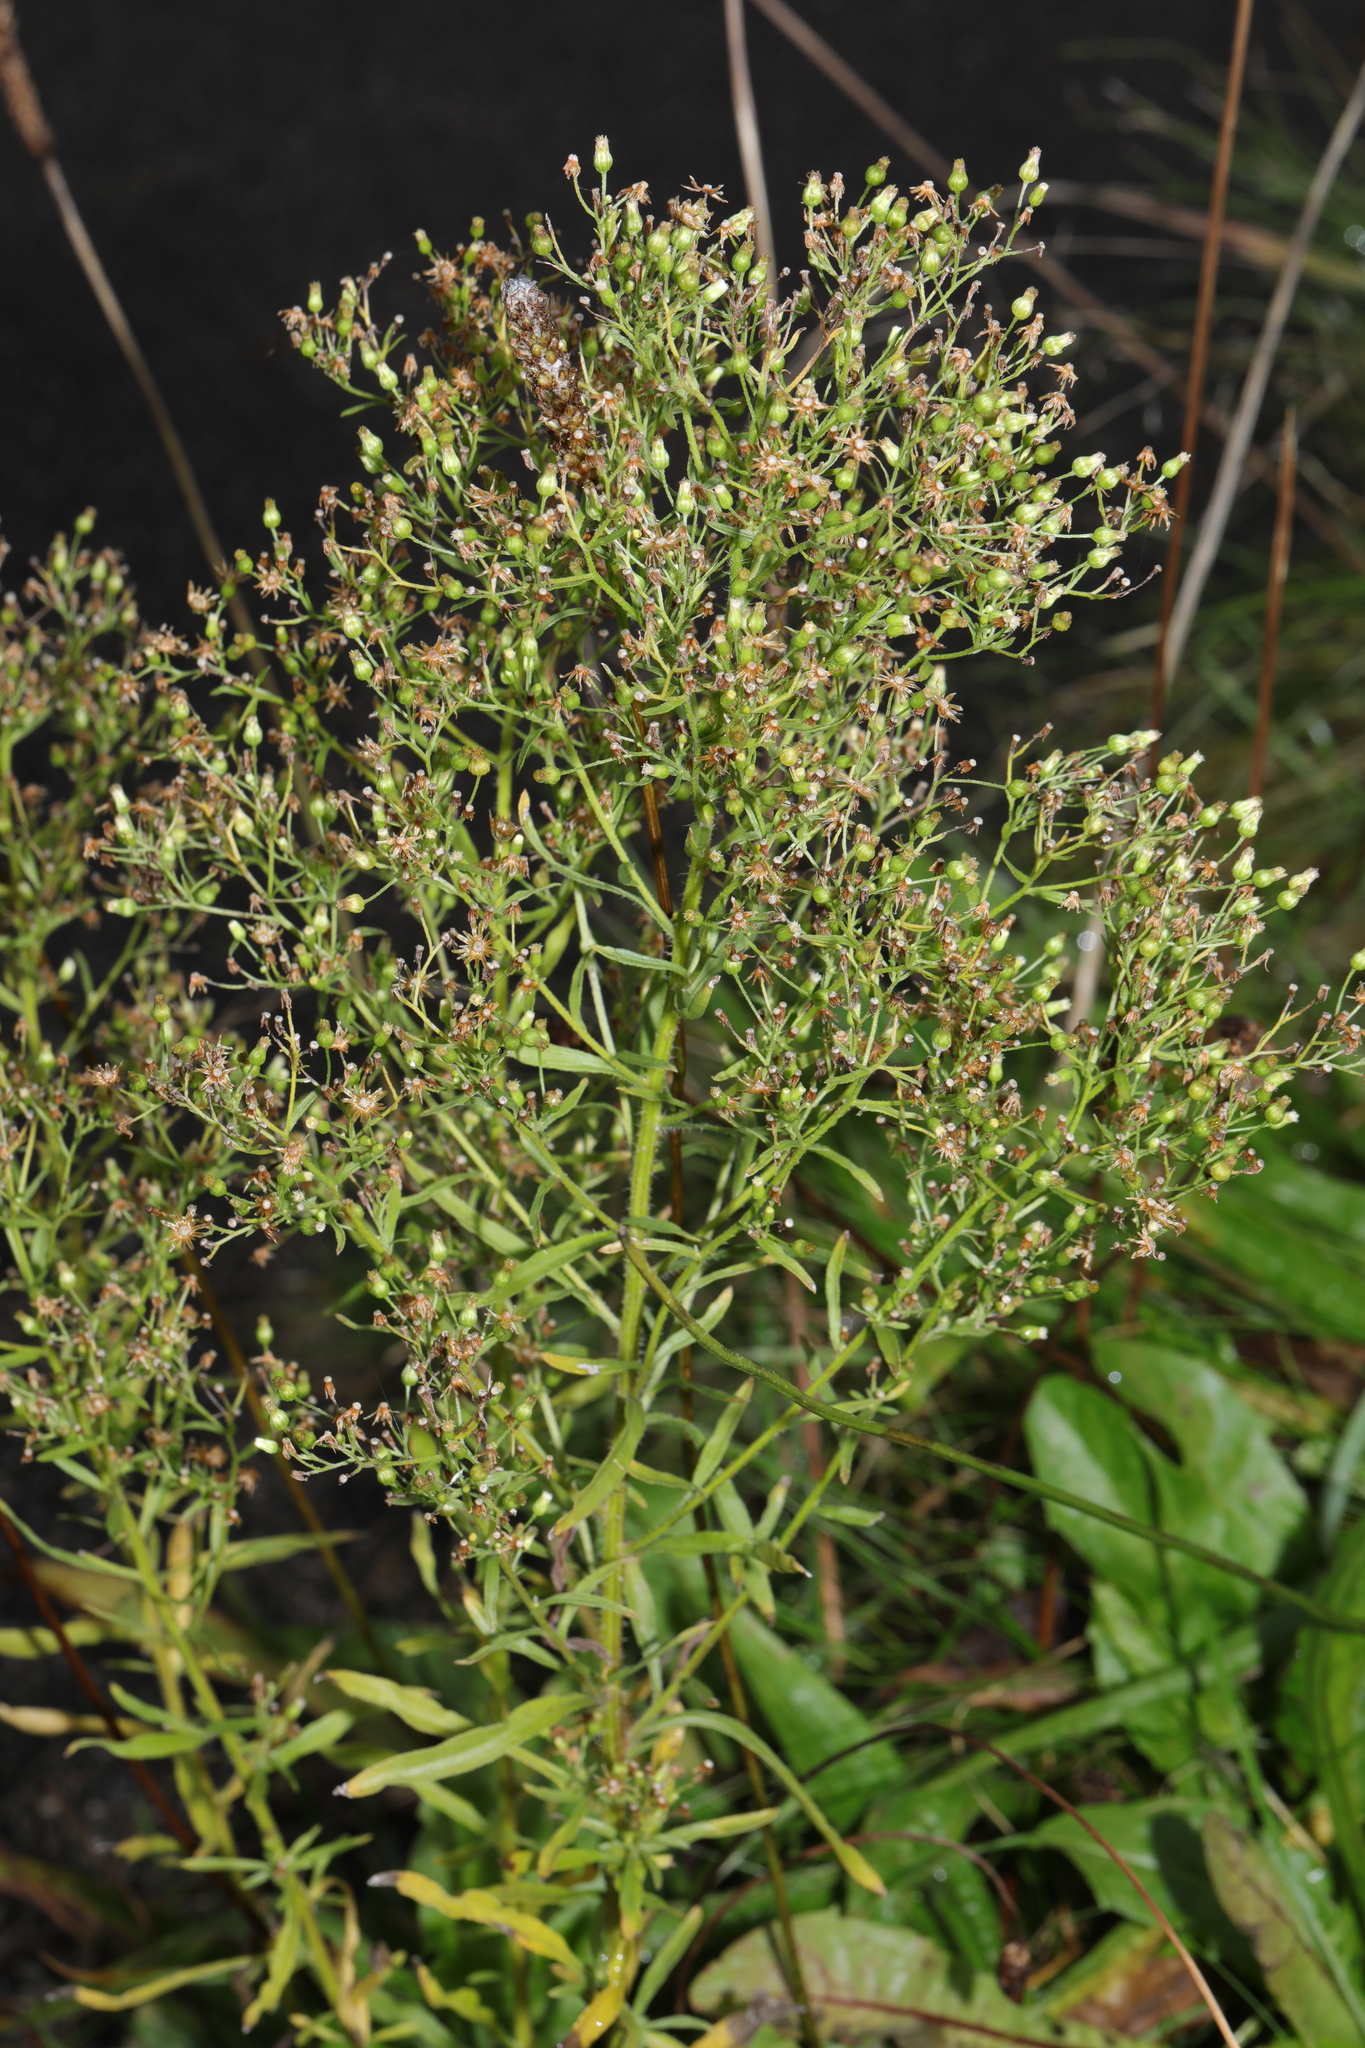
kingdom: Plantae
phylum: Tracheophyta
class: Magnoliopsida
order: Asterales
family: Asteraceae
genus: Erigeron
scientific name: Erigeron canadensis
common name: Canadian fleabane
